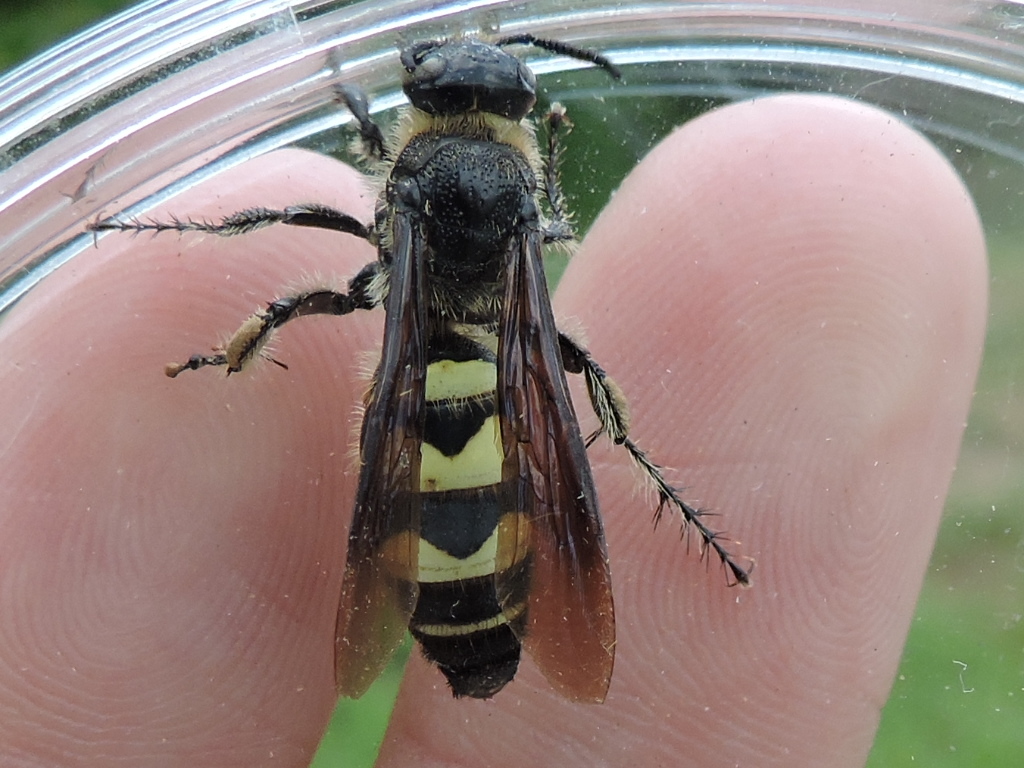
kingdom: Animalia
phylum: Arthropoda
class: Insecta
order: Hymenoptera
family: Scoliidae
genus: Dielis
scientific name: Dielis
